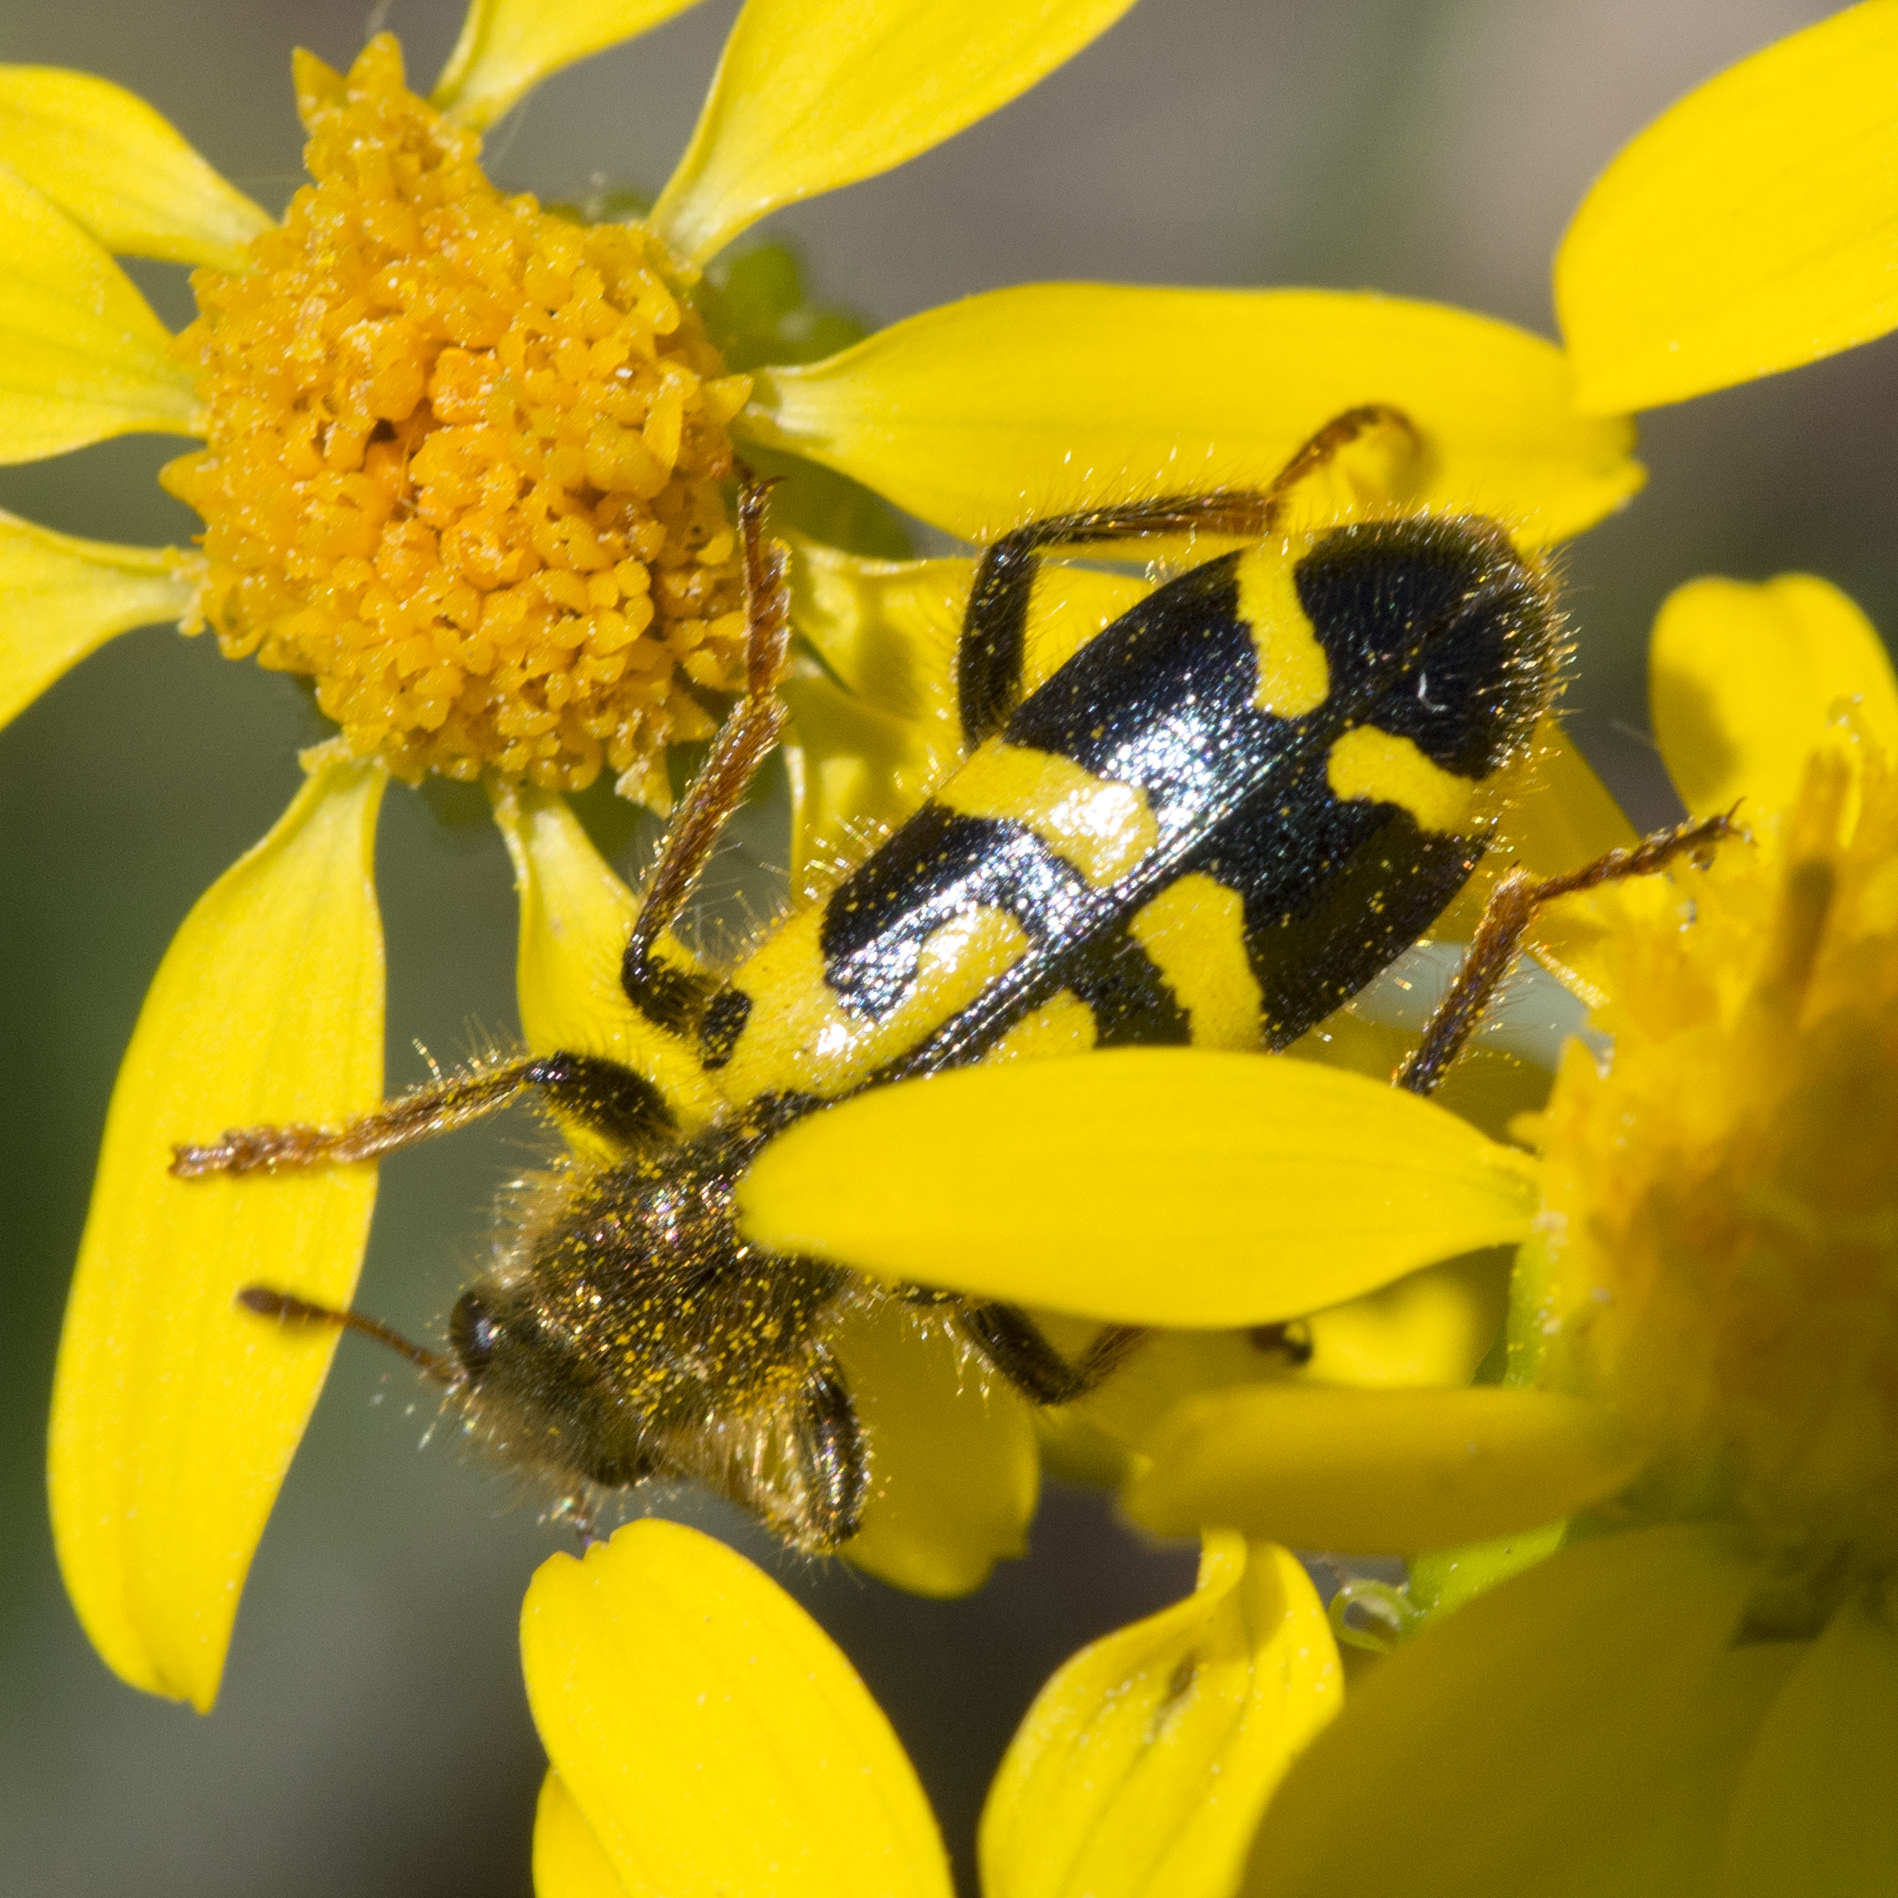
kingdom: Animalia
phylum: Arthropoda
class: Insecta
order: Coleoptera
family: Cleridae
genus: Trichodes
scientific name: Trichodes ornatus
